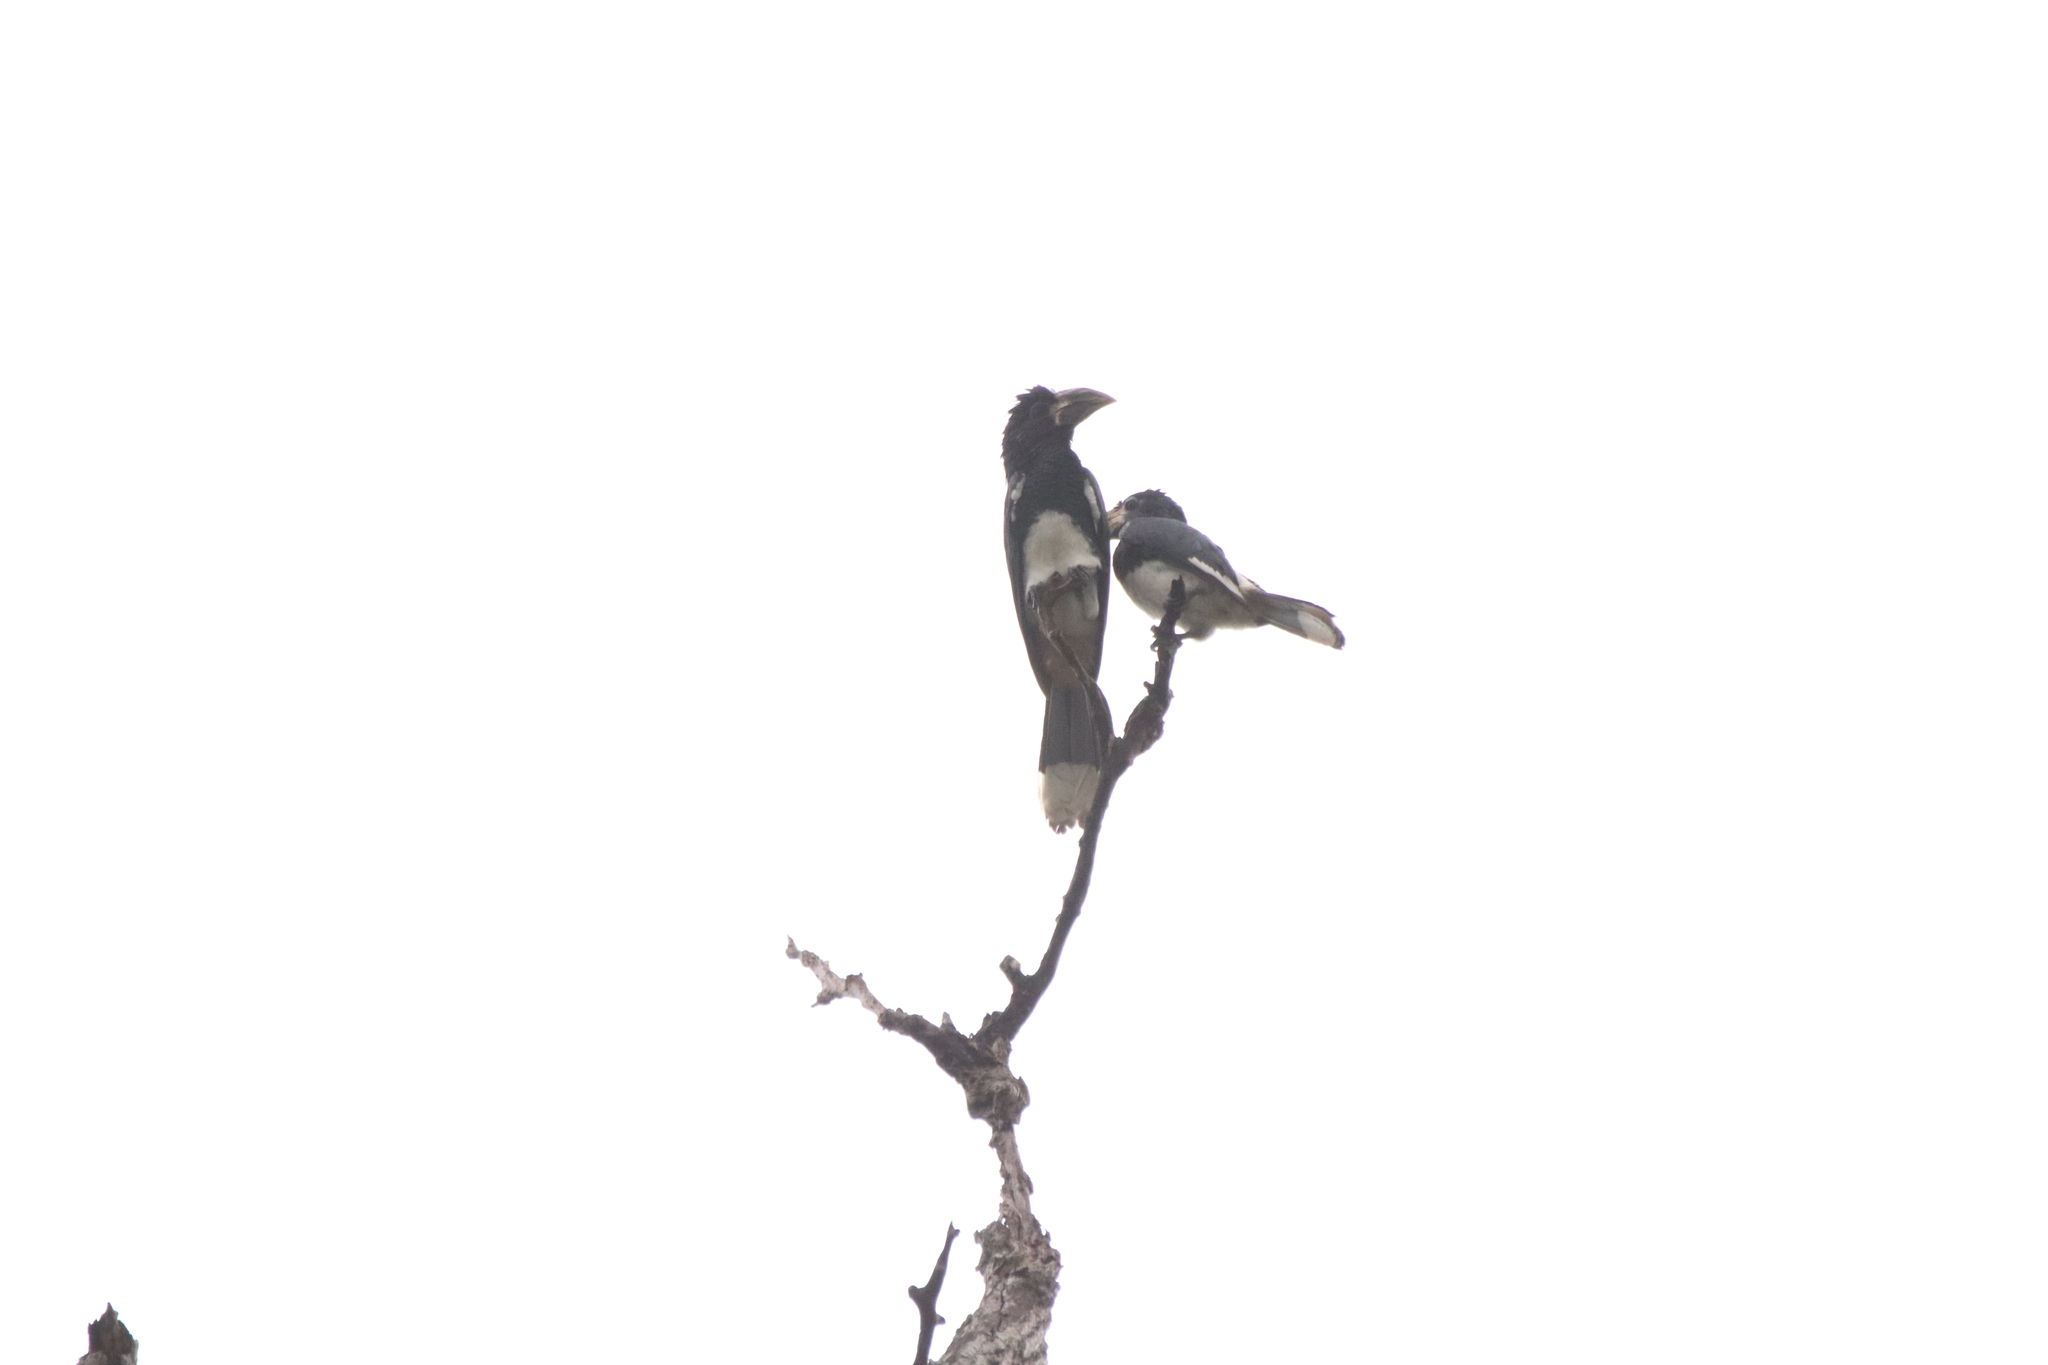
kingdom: Animalia
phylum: Chordata
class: Aves
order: Bucerotiformes
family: Bucerotidae
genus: Bycanistes
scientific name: Bycanistes fistulator
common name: Piping hornbill
